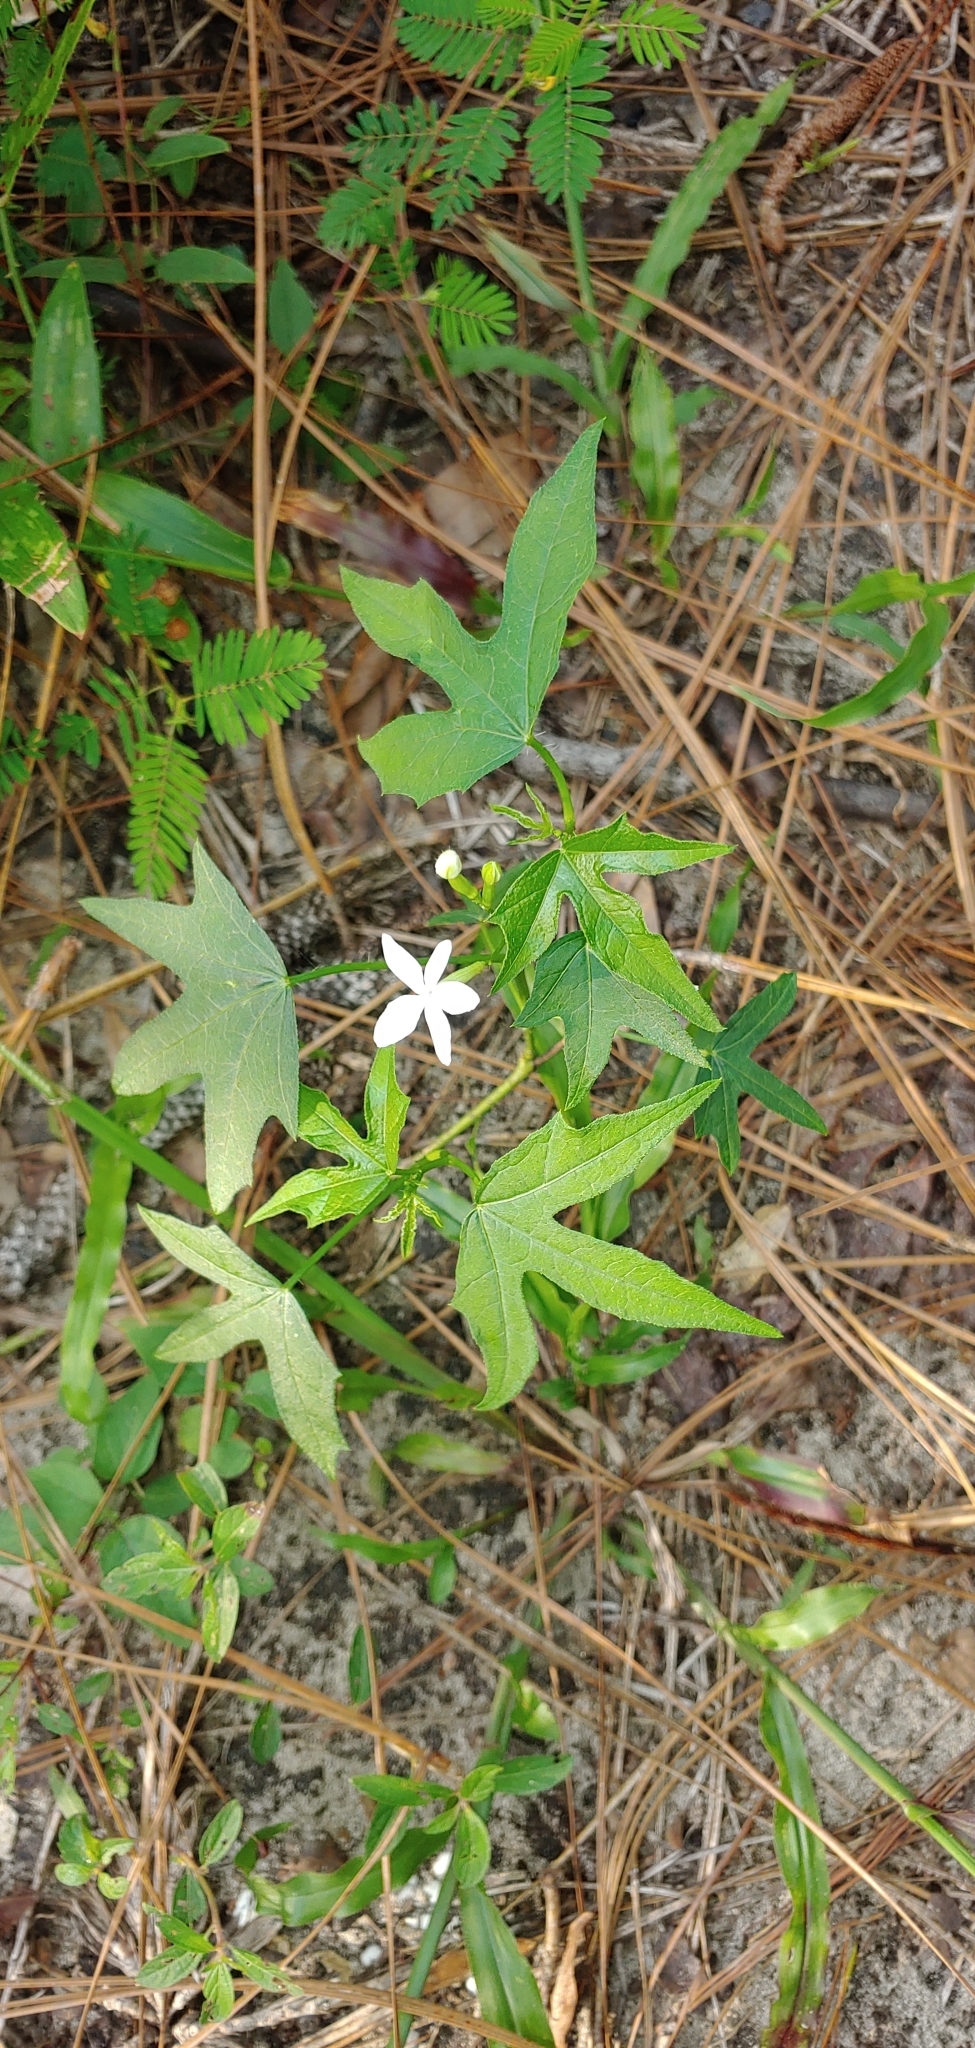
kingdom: Plantae
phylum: Tracheophyta
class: Magnoliopsida
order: Malpighiales
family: Euphorbiaceae
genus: Cnidoscolus
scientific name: Cnidoscolus stimulosus
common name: Bull-nettle
